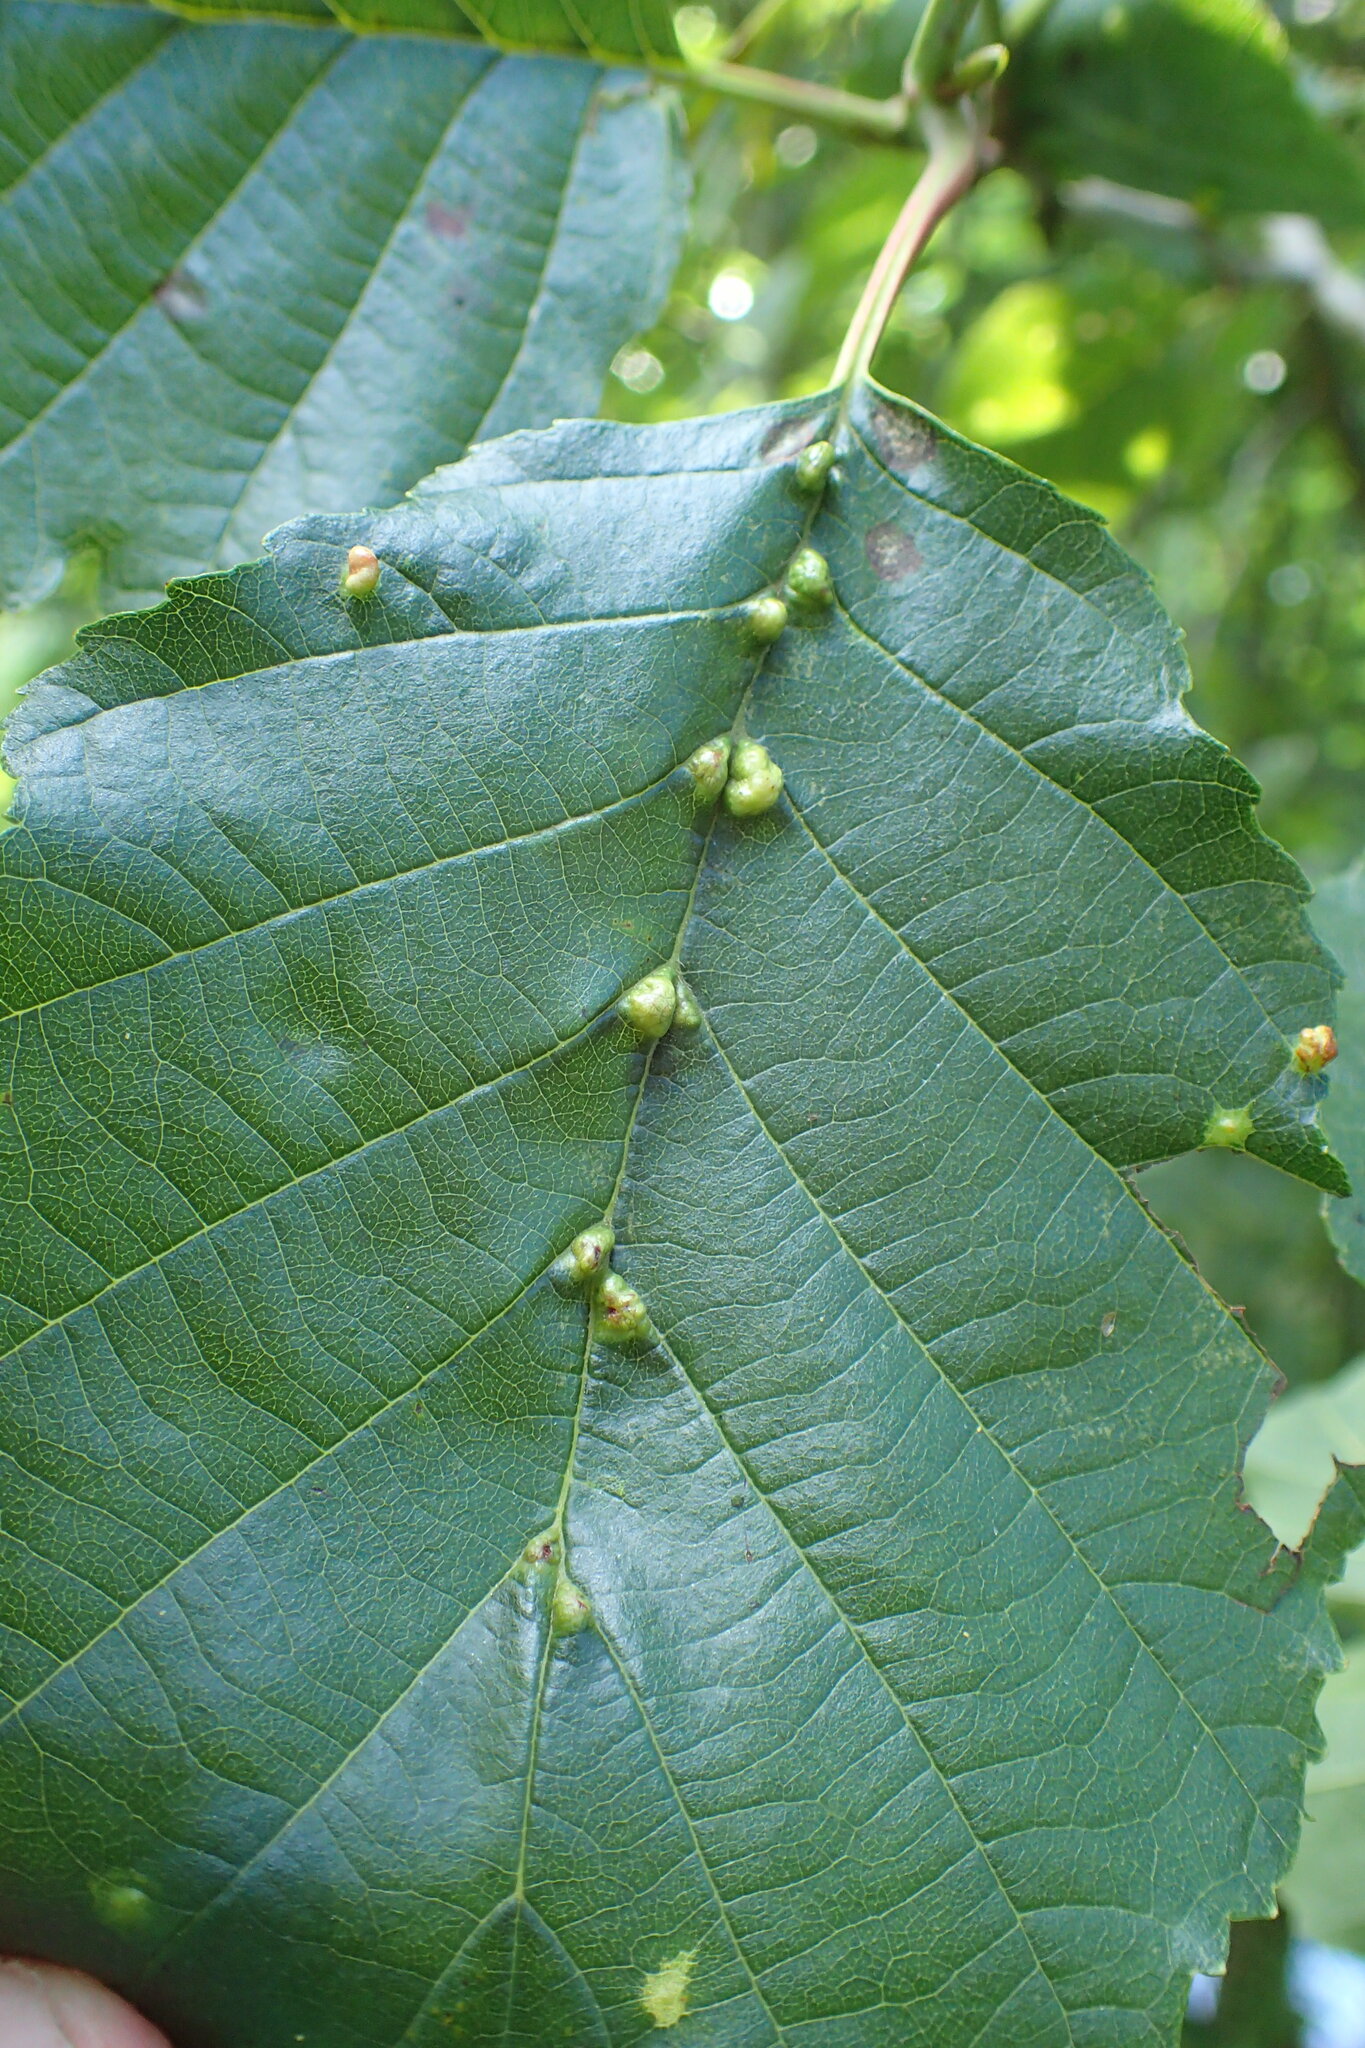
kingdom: Animalia
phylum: Arthropoda
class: Arachnida
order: Trombidiformes
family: Eriophyidae
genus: Eriophyes
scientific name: Eriophyes inangulis
